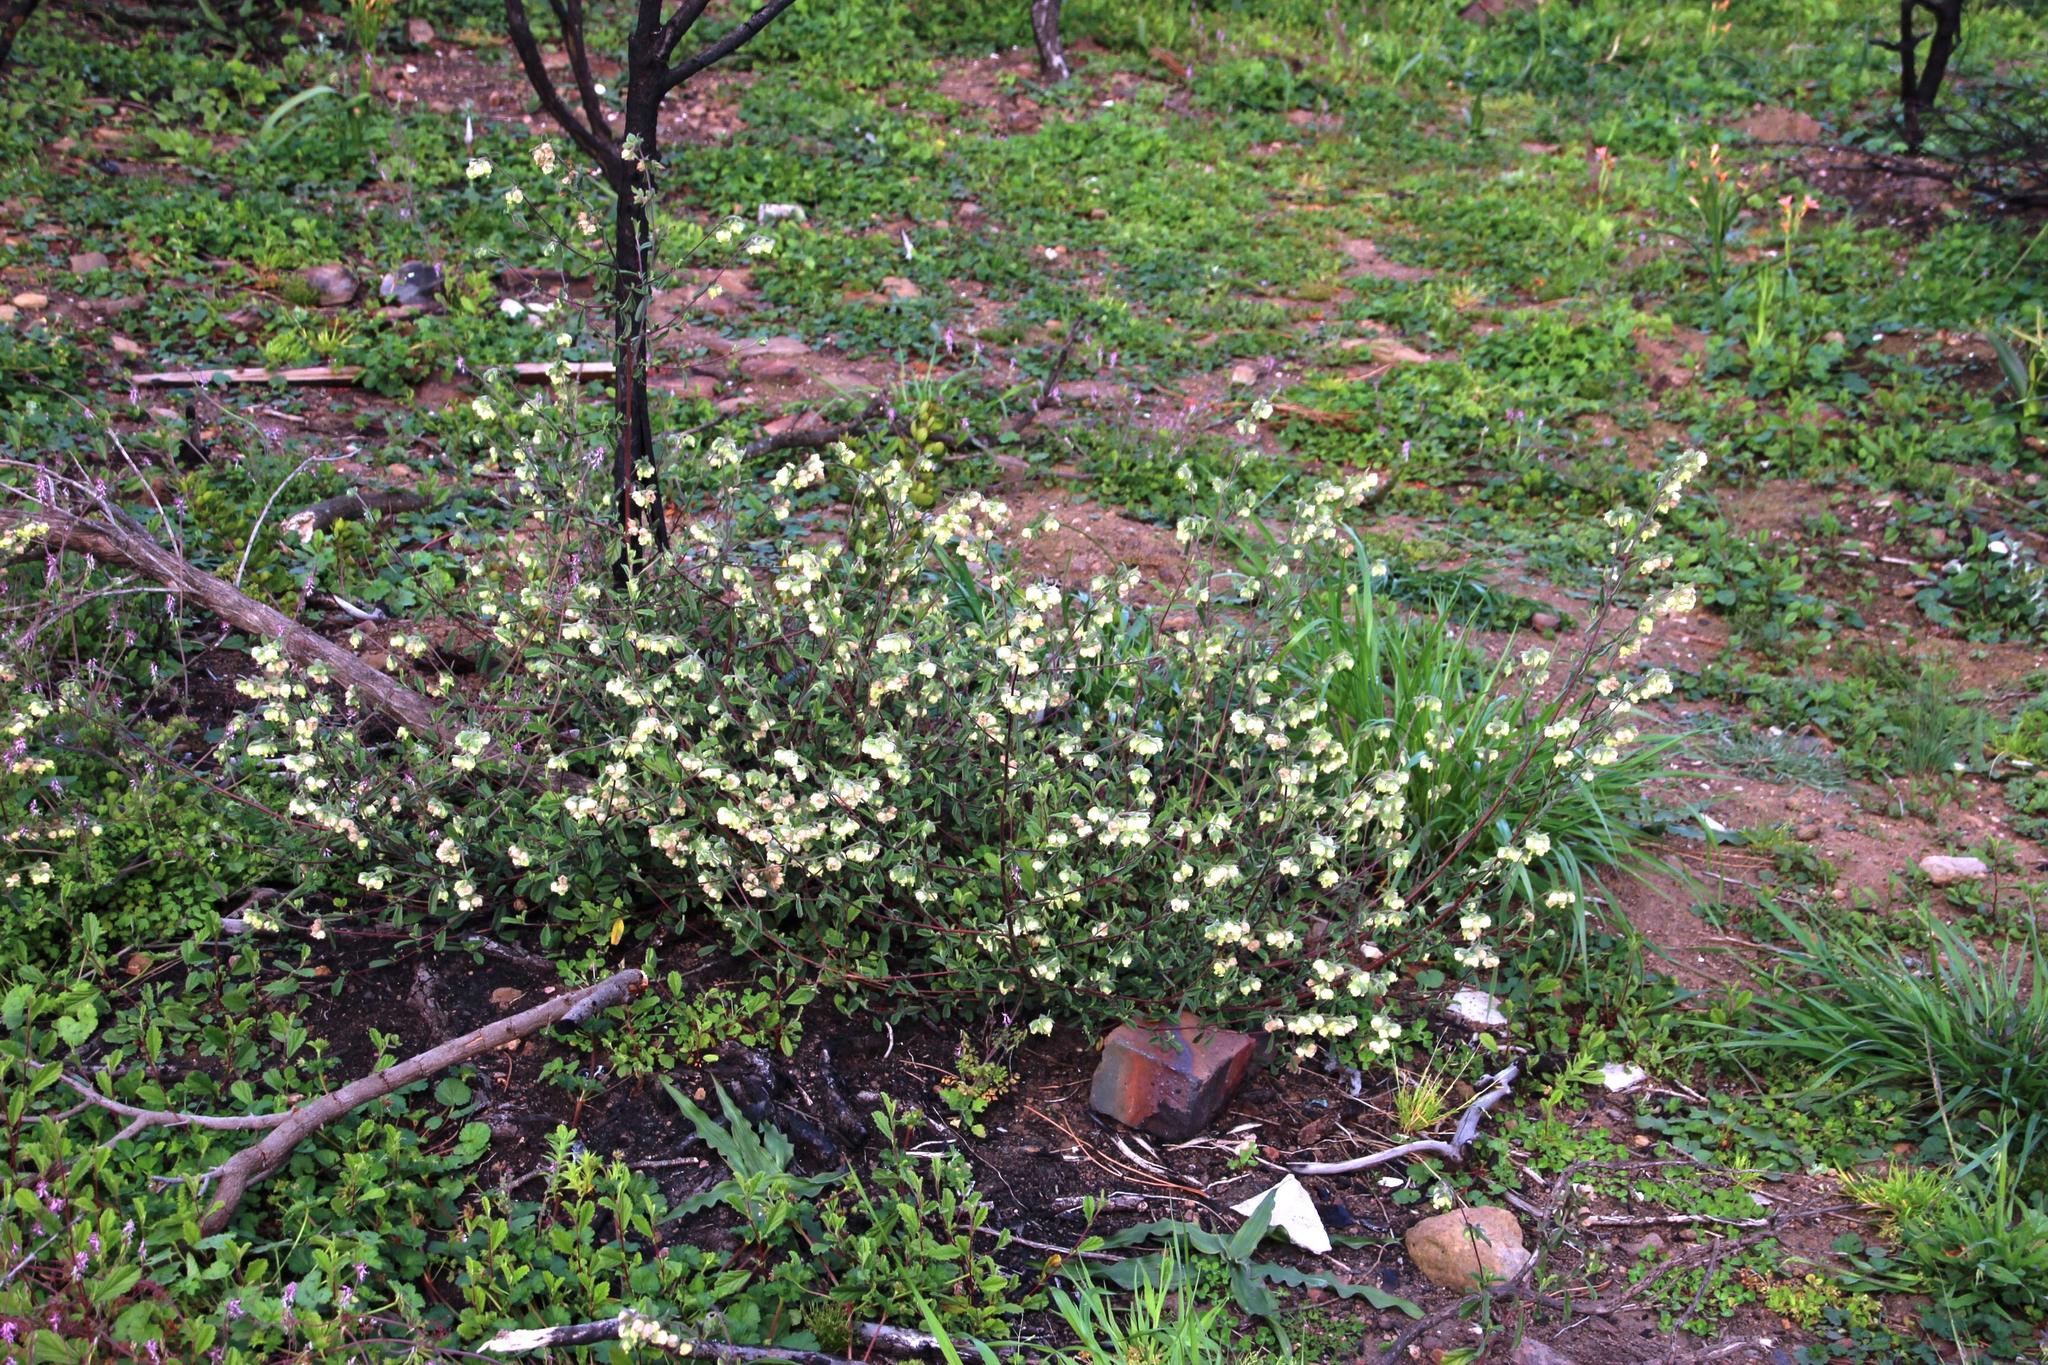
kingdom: Plantae
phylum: Tracheophyta
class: Magnoliopsida
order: Malvales
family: Malvaceae
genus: Hermannia
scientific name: Hermannia hyssopifolia
